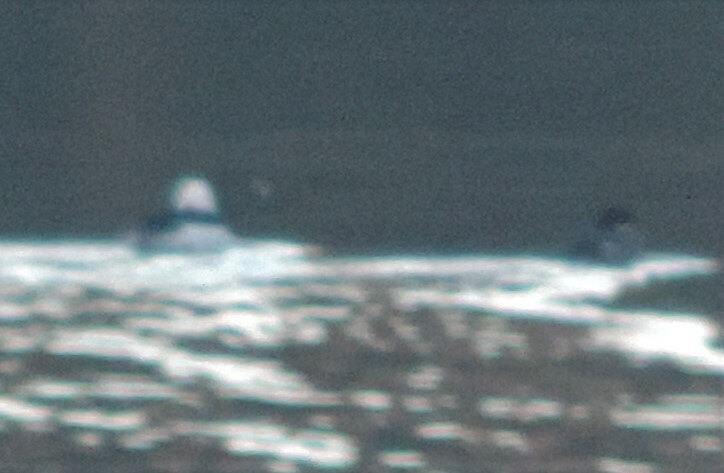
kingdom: Animalia
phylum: Chordata
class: Aves
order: Anseriformes
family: Anatidae
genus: Bucephala
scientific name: Bucephala albeola
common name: Bufflehead
